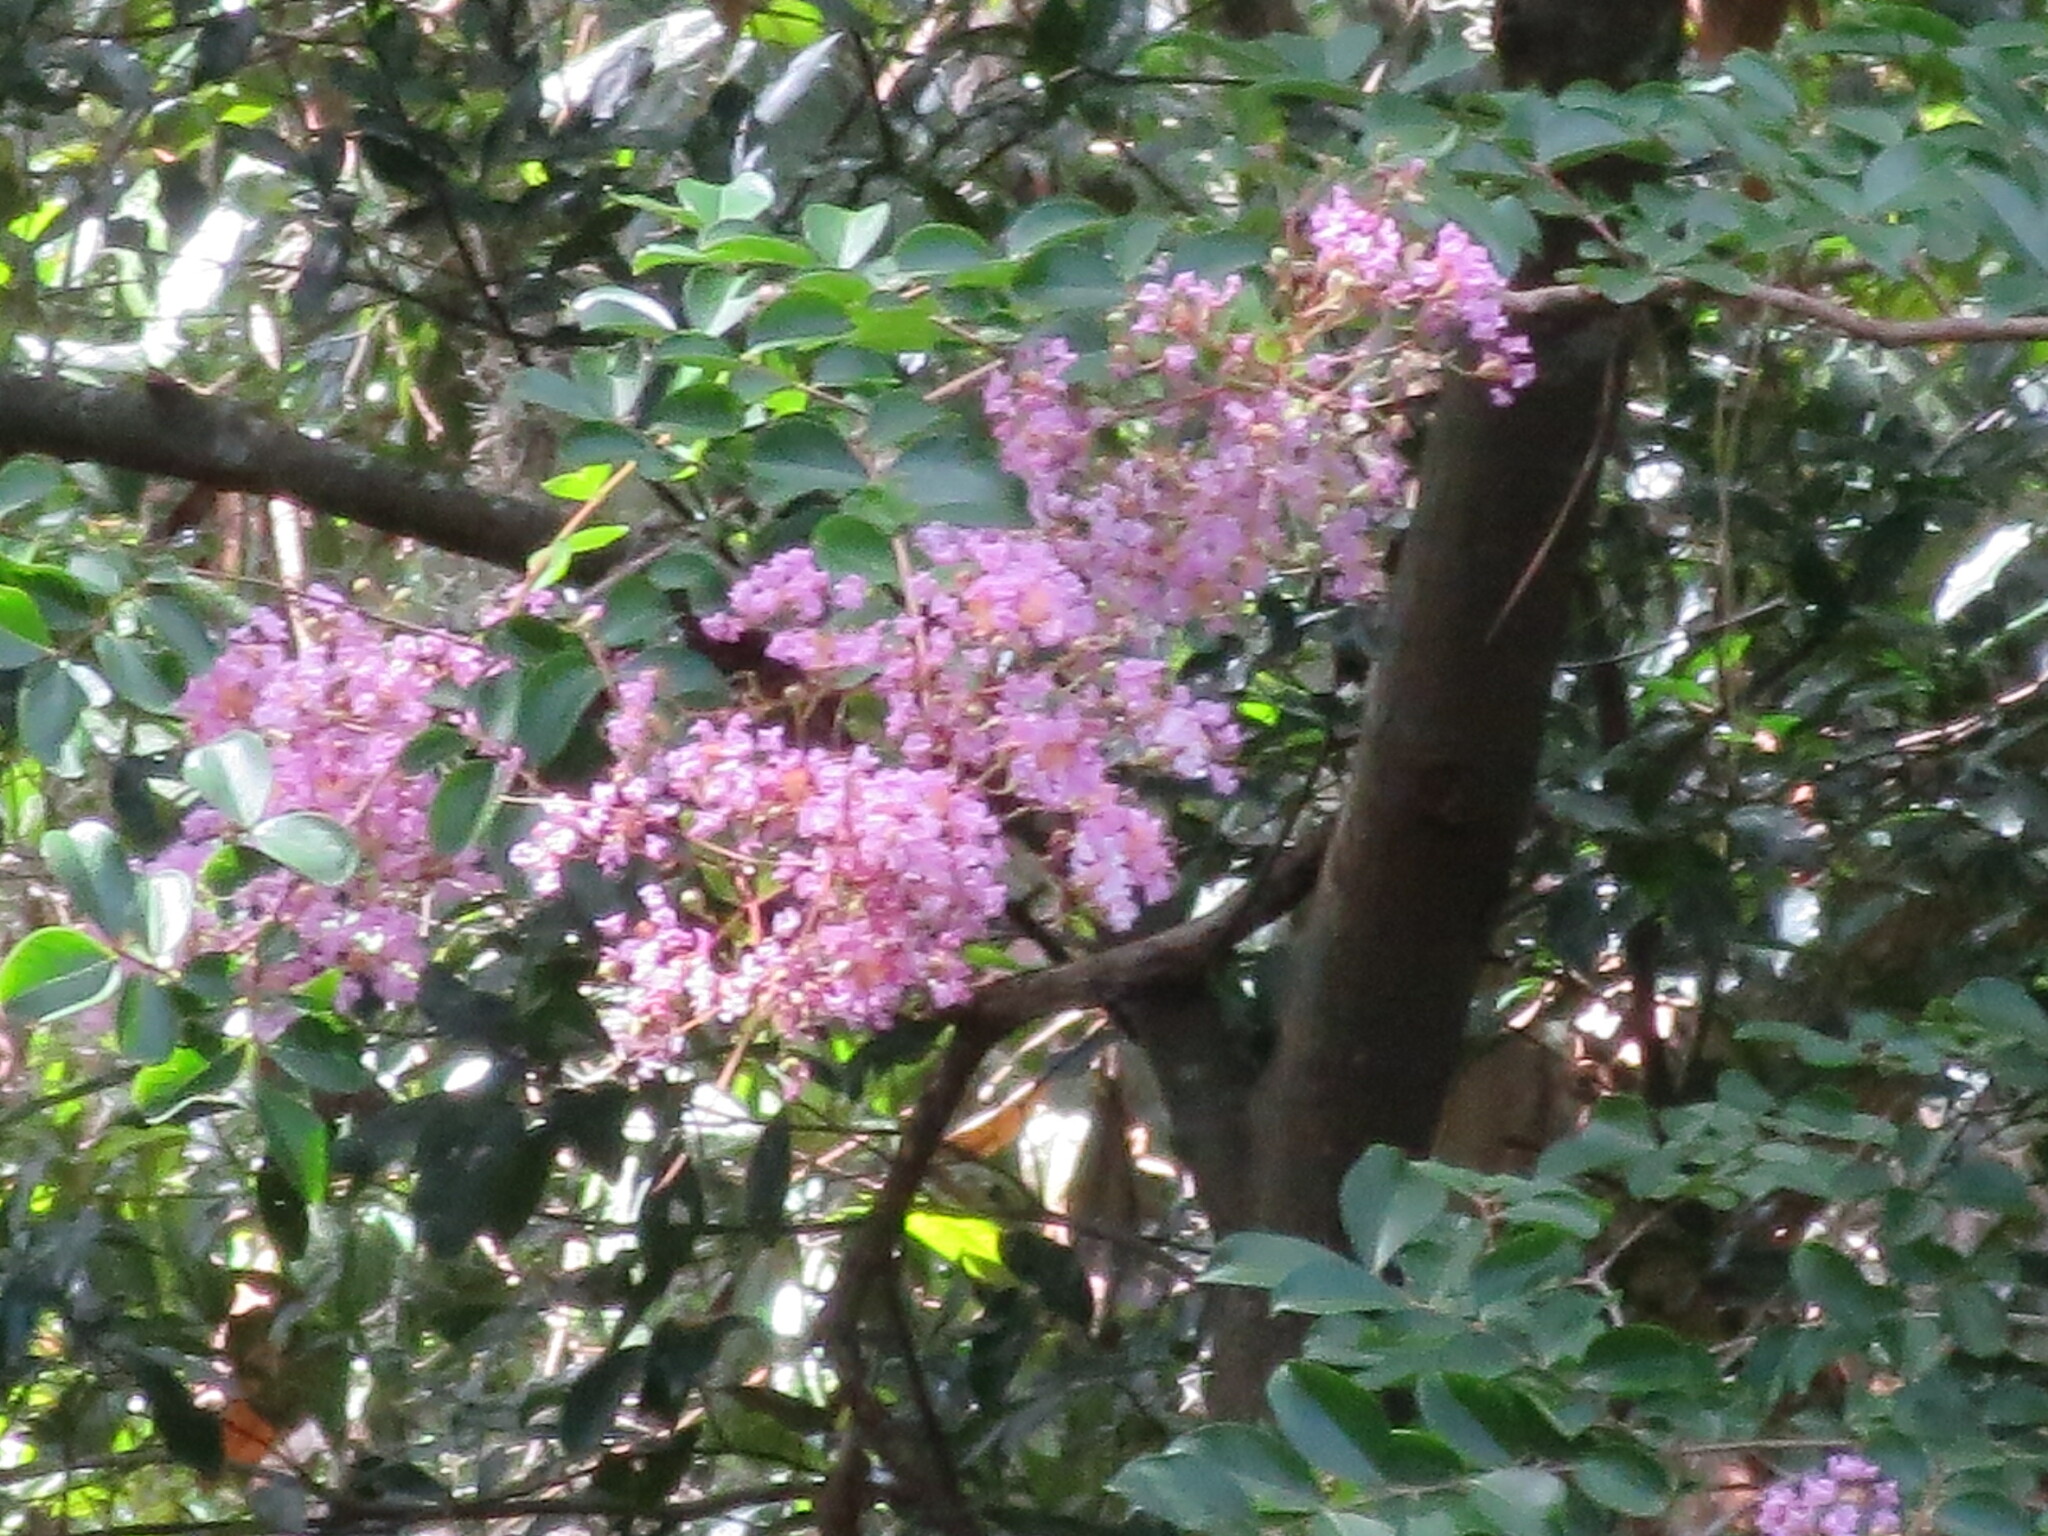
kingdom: Plantae
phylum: Tracheophyta
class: Magnoliopsida
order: Myrtales
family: Lythraceae
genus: Lagerstroemia
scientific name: Lagerstroemia indica
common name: Crape-myrtle
